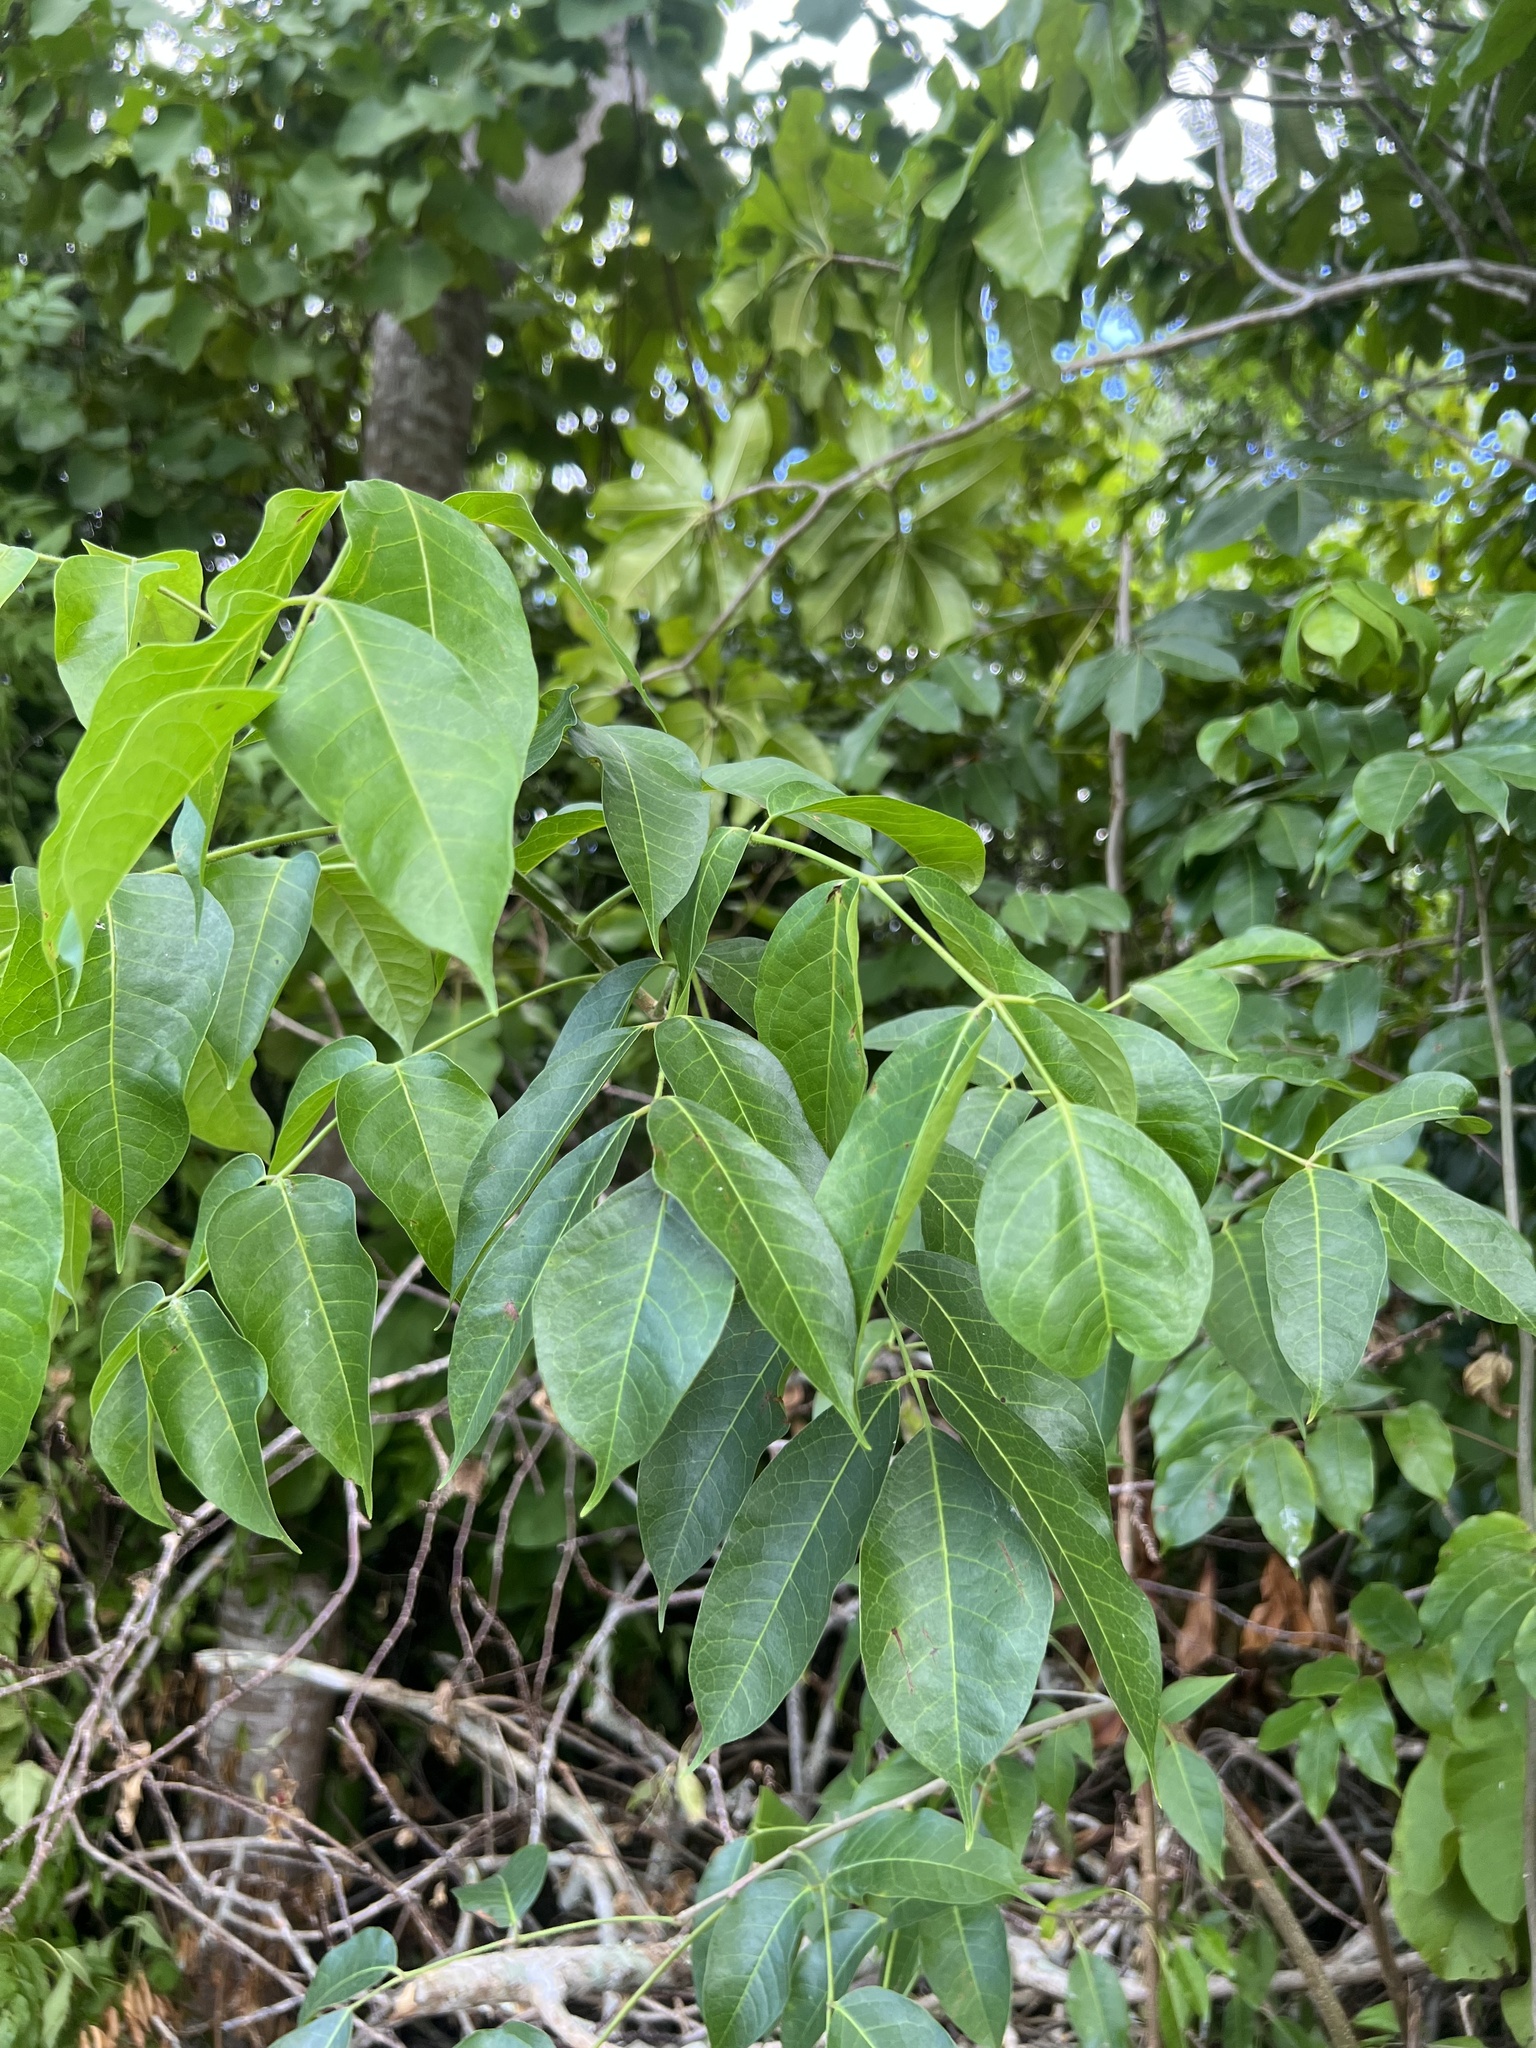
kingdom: Plantae
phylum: Tracheophyta
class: Magnoliopsida
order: Sapindales
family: Burseraceae
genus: Bursera
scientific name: Bursera simaruba
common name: Turpentine tree
